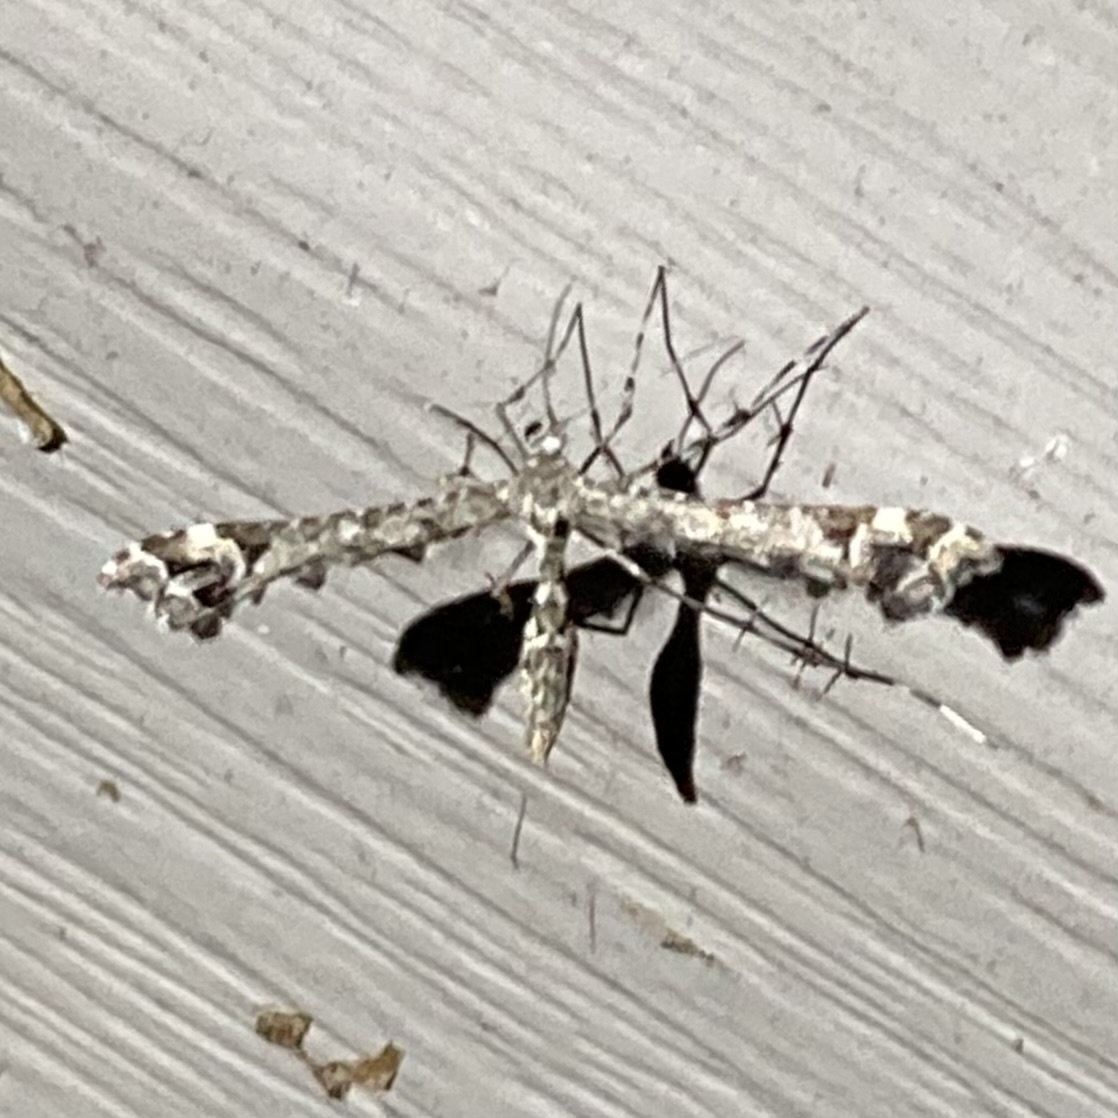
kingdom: Animalia
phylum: Arthropoda
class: Insecta
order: Lepidoptera
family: Pterophoridae
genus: Amblyptilia
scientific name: Amblyptilia pica
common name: Geranium plume moth
